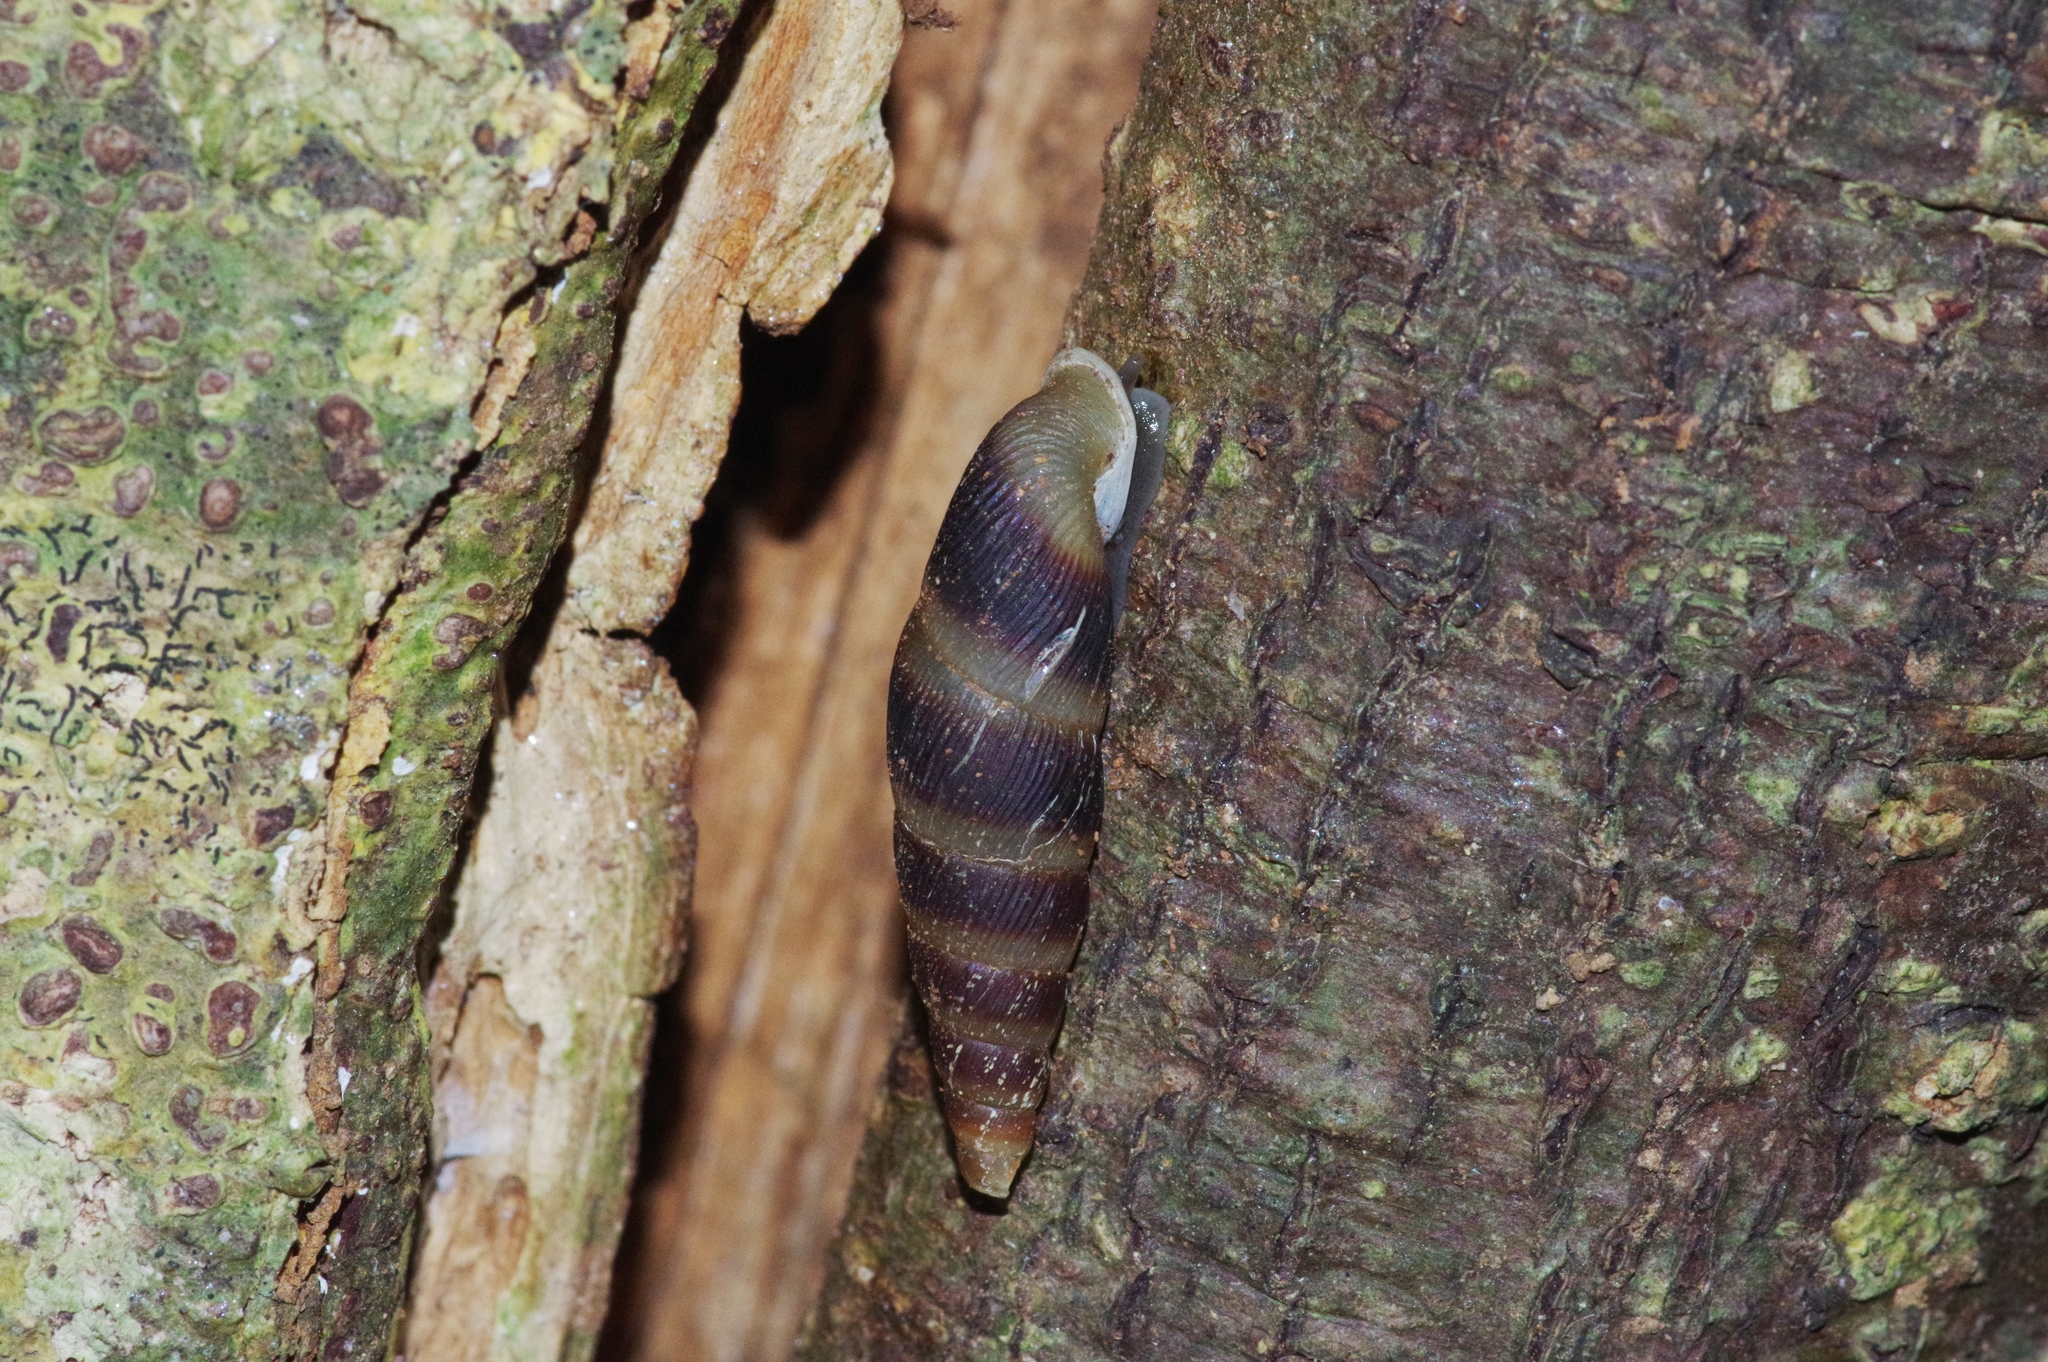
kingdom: Animalia
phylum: Mollusca
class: Gastropoda
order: Stylommatophora
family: Clausiliidae
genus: Stereophaedusa
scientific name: Stereophaedusa valida
